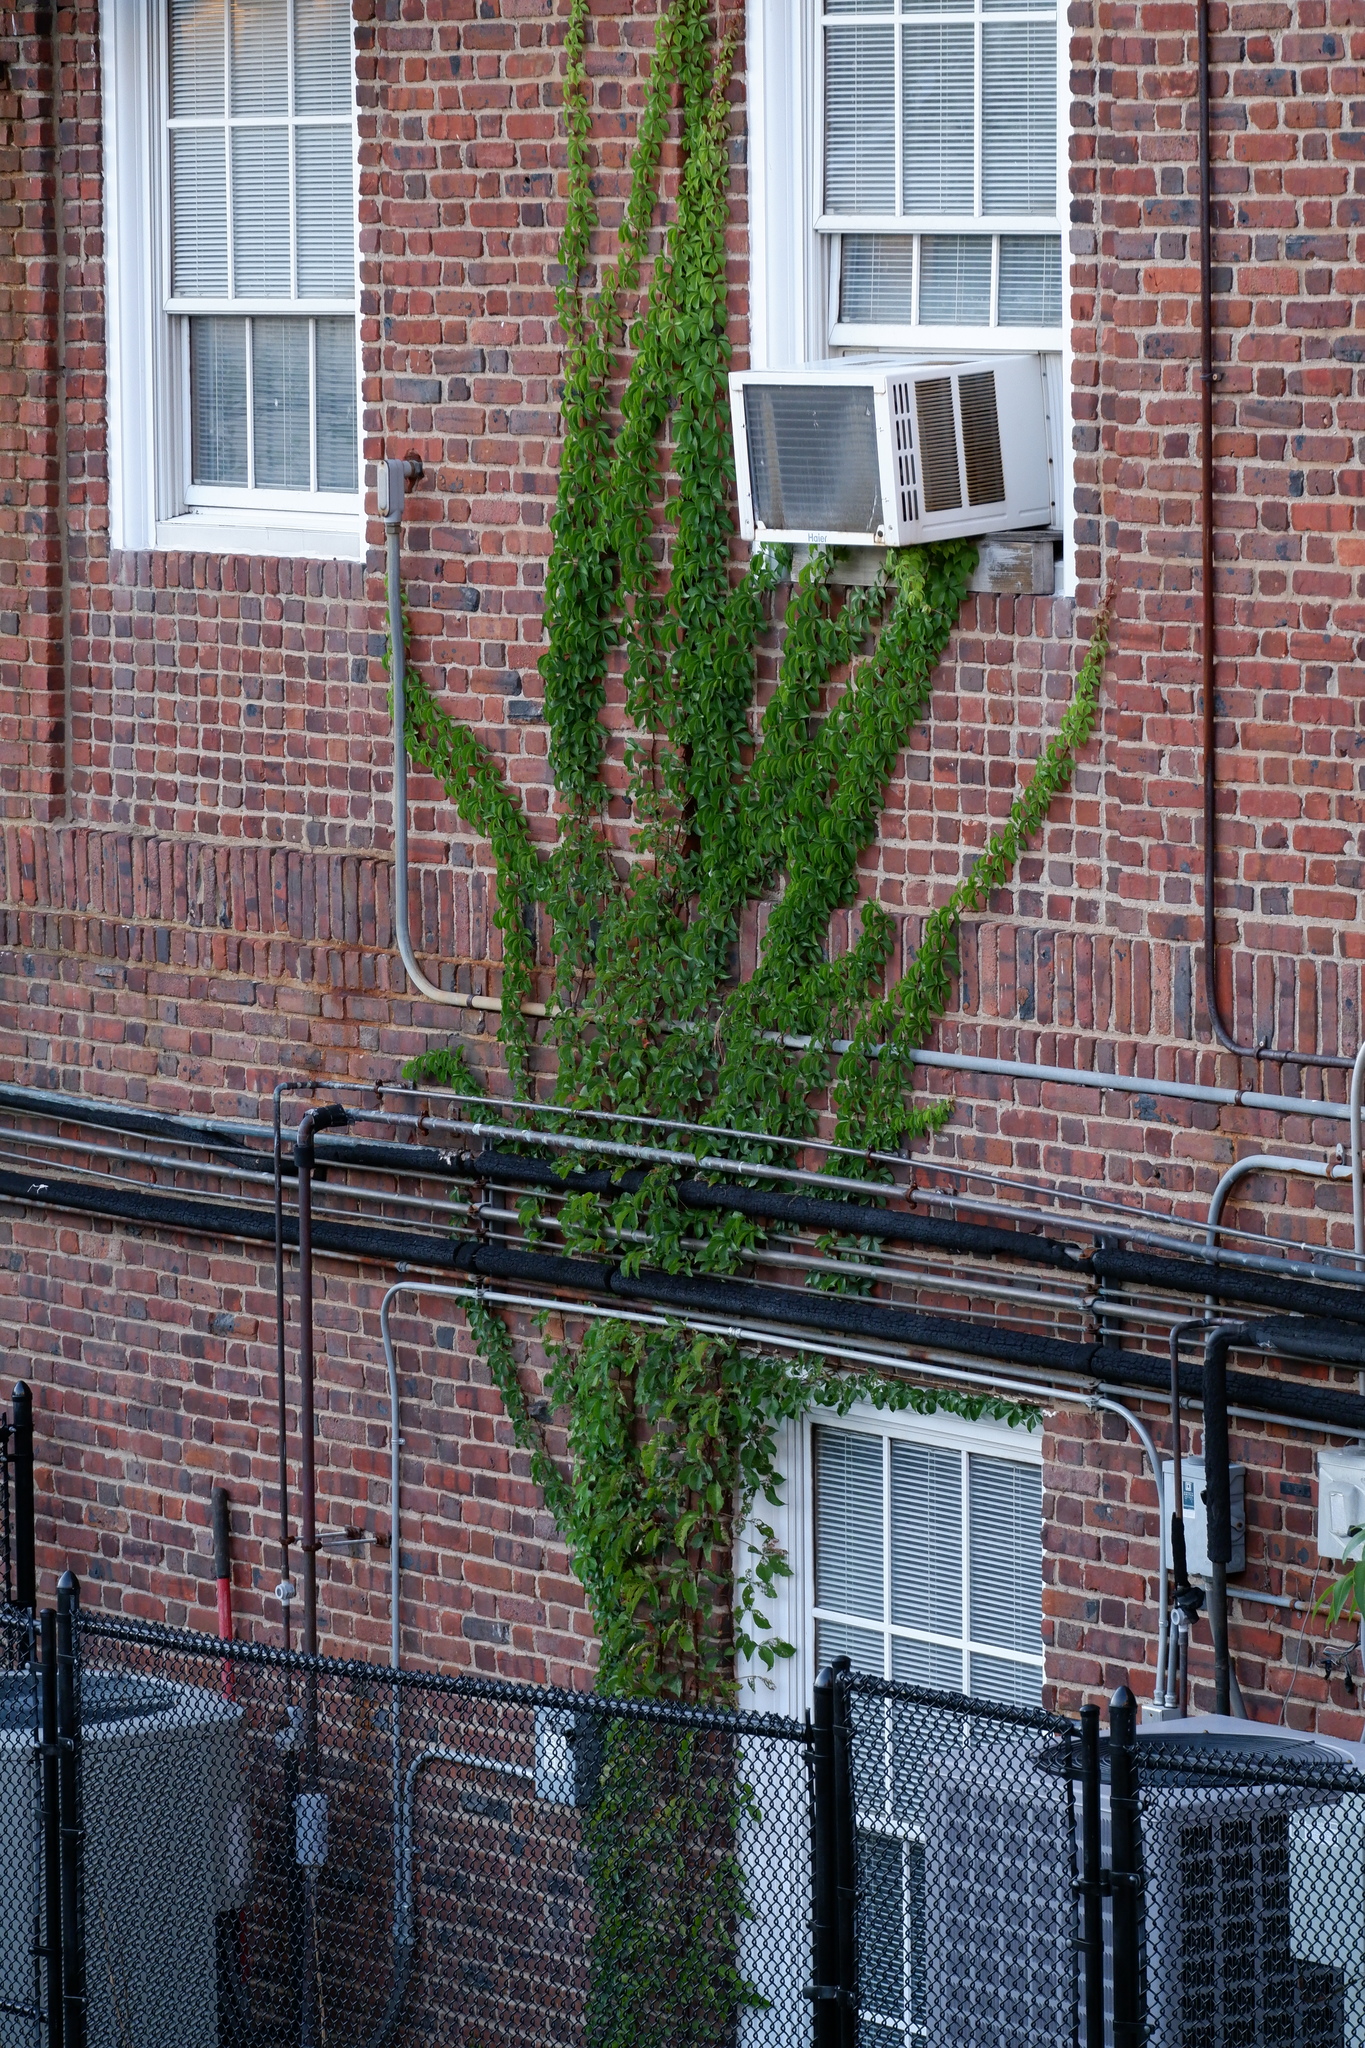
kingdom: Plantae
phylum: Tracheophyta
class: Magnoliopsida
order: Vitales
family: Vitaceae
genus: Parthenocissus
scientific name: Parthenocissus quinquefolia
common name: Virginia-creeper
